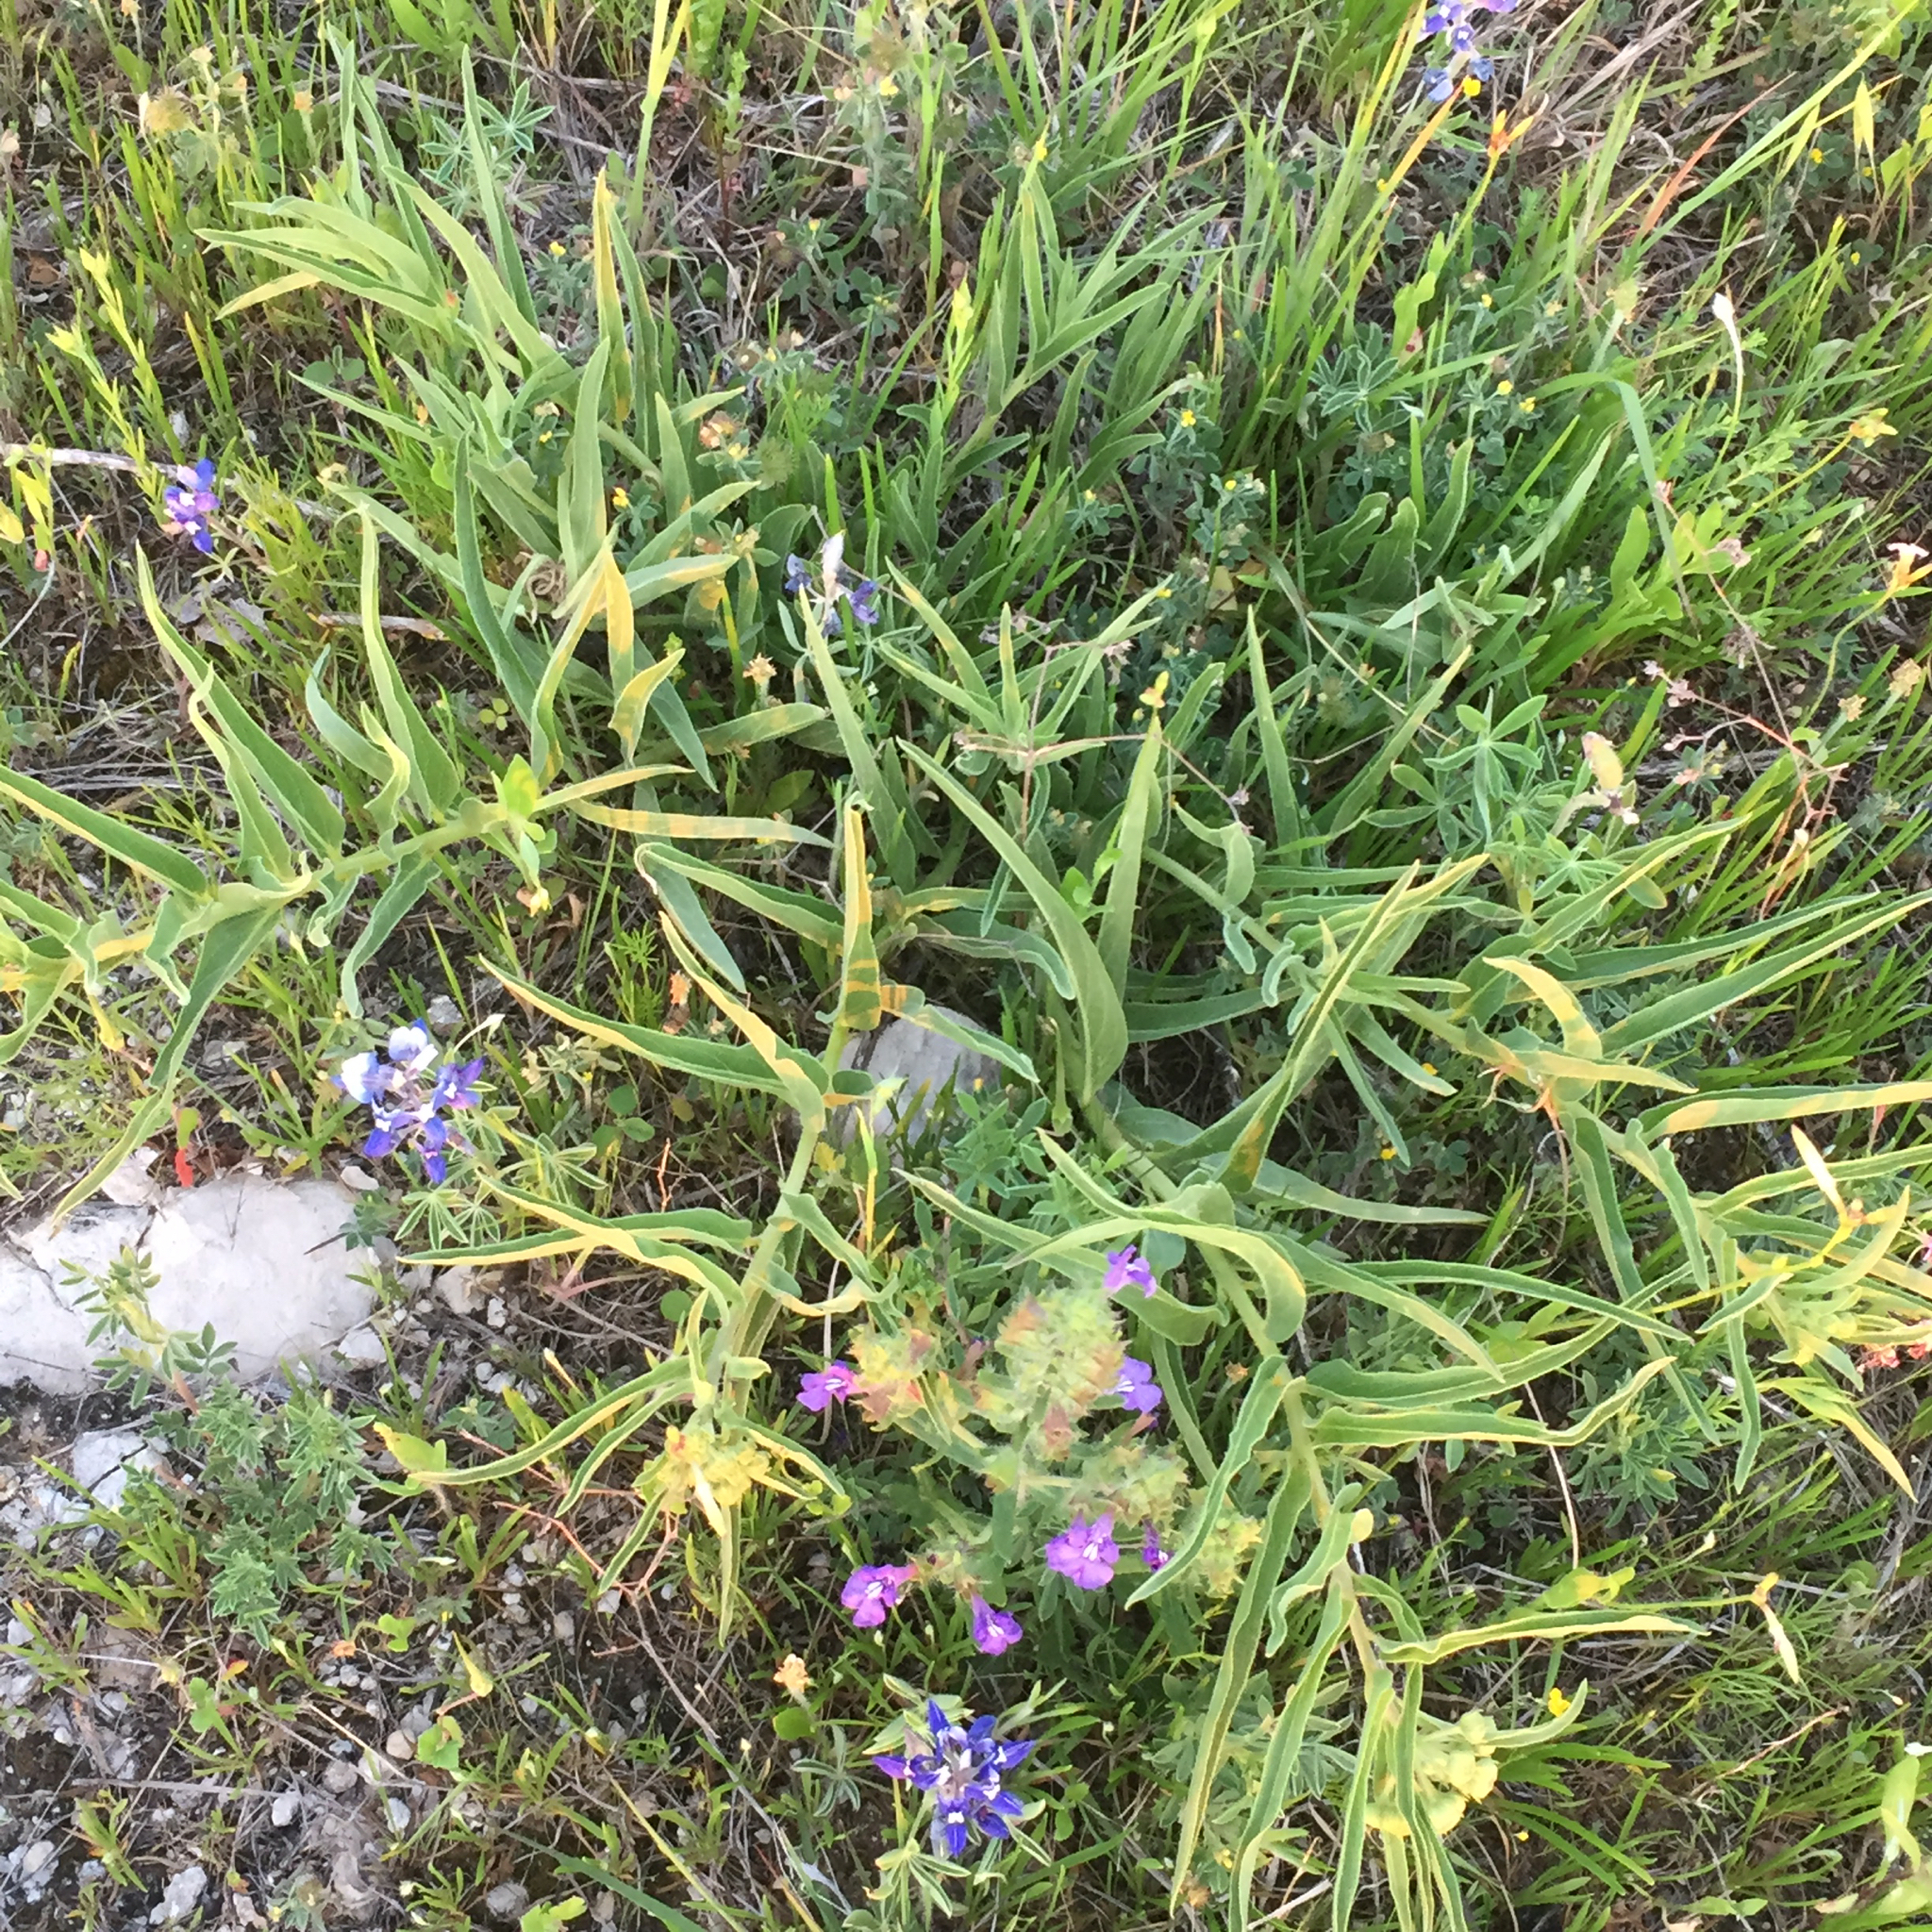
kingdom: Plantae
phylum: Tracheophyta
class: Magnoliopsida
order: Gentianales
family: Apocynaceae
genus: Asclepias
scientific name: Asclepias asperula
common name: Antelope horns
